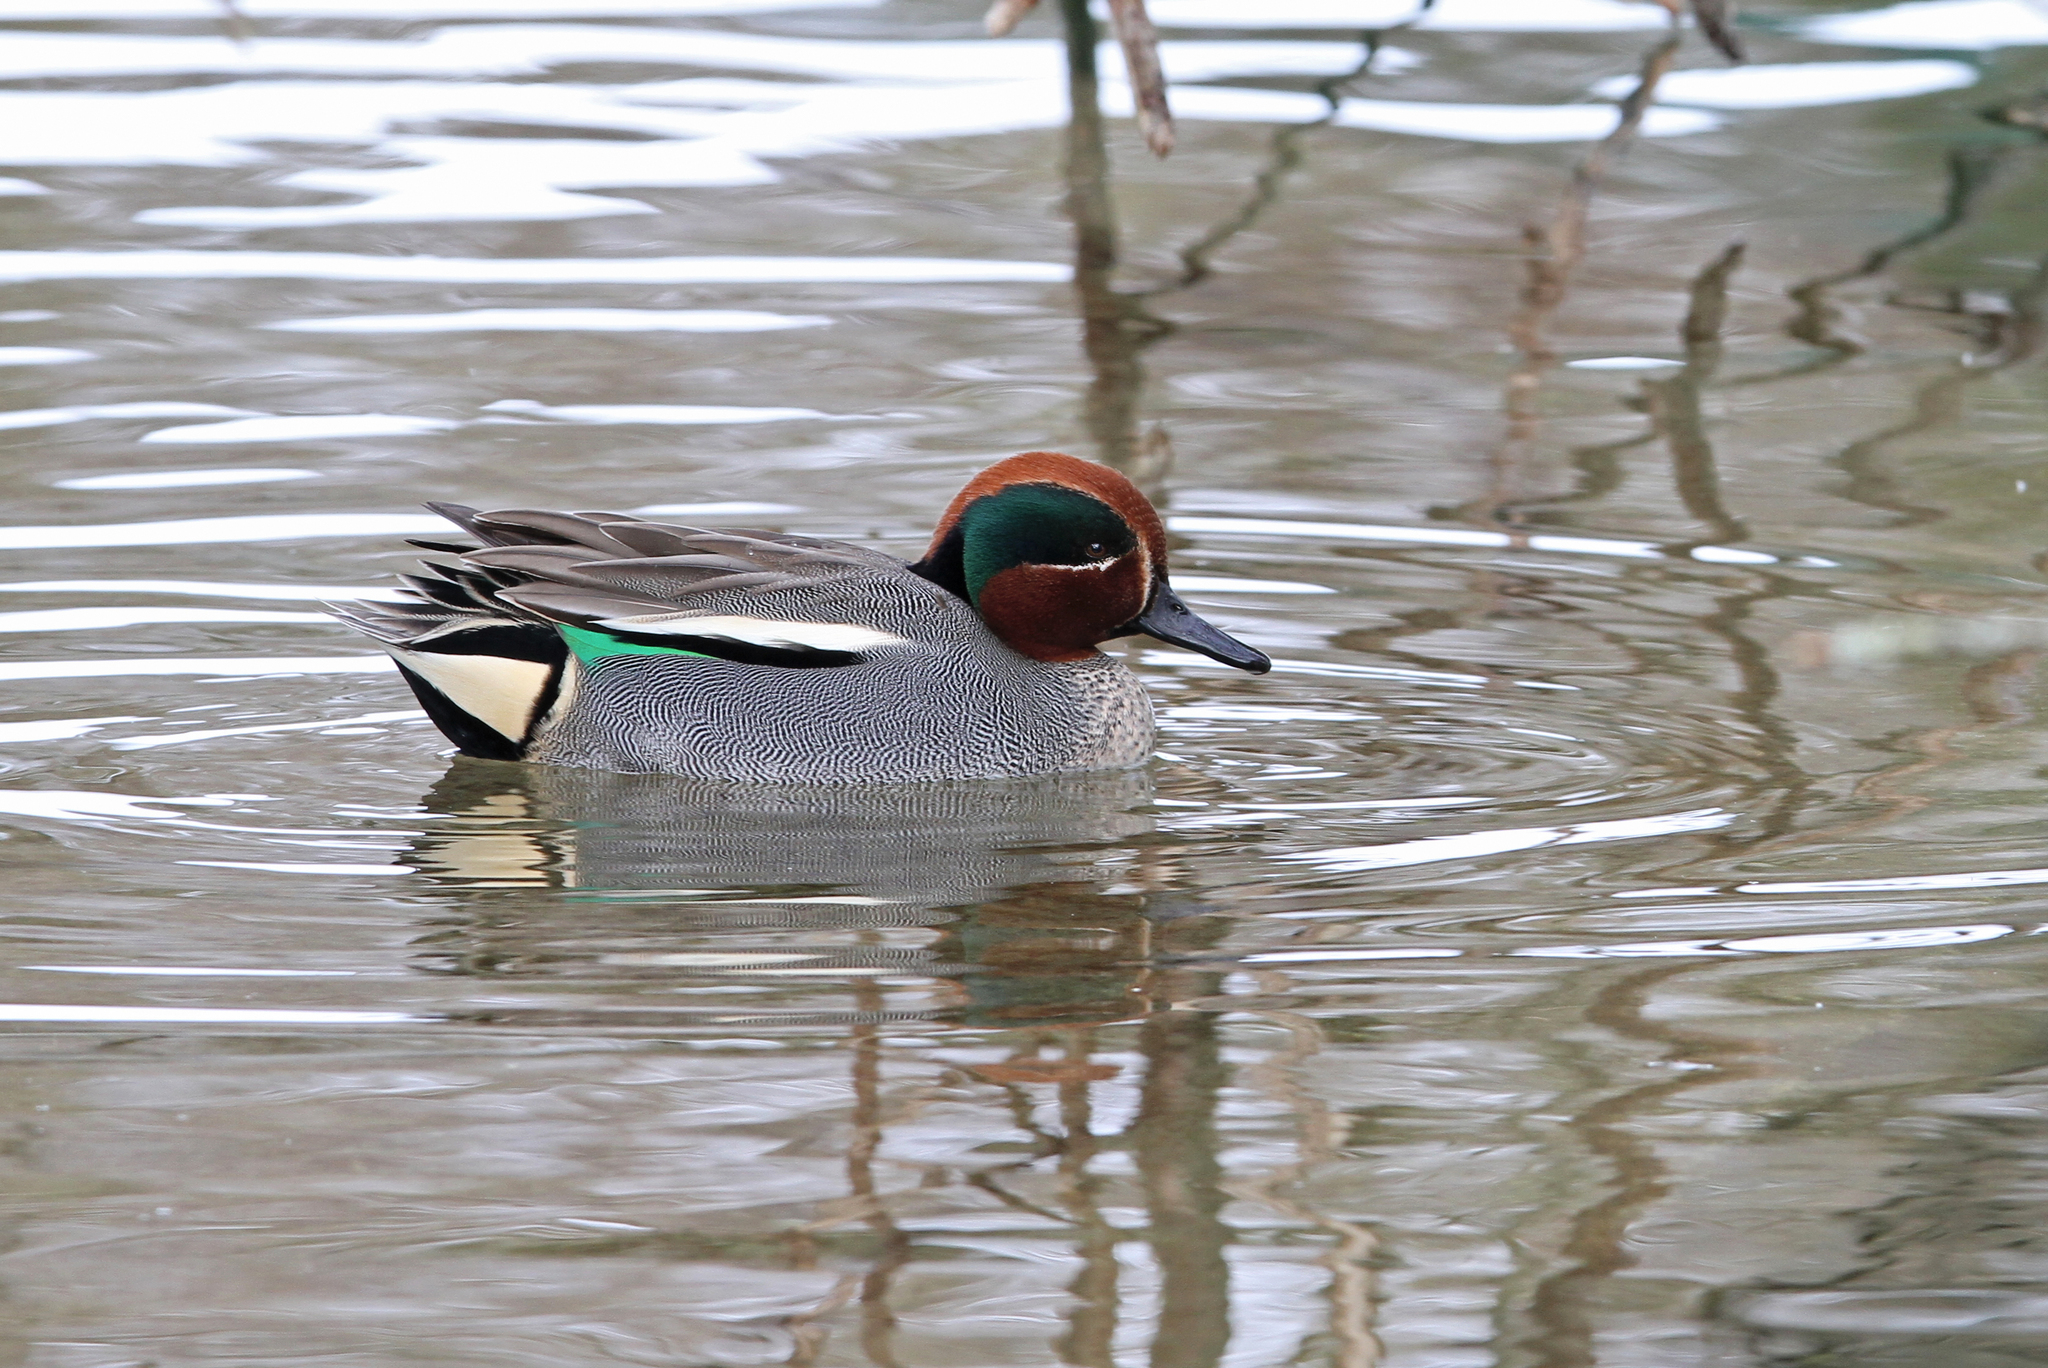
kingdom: Animalia
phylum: Chordata
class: Aves
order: Anseriformes
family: Anatidae
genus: Anas
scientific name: Anas crecca
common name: Eurasian teal
